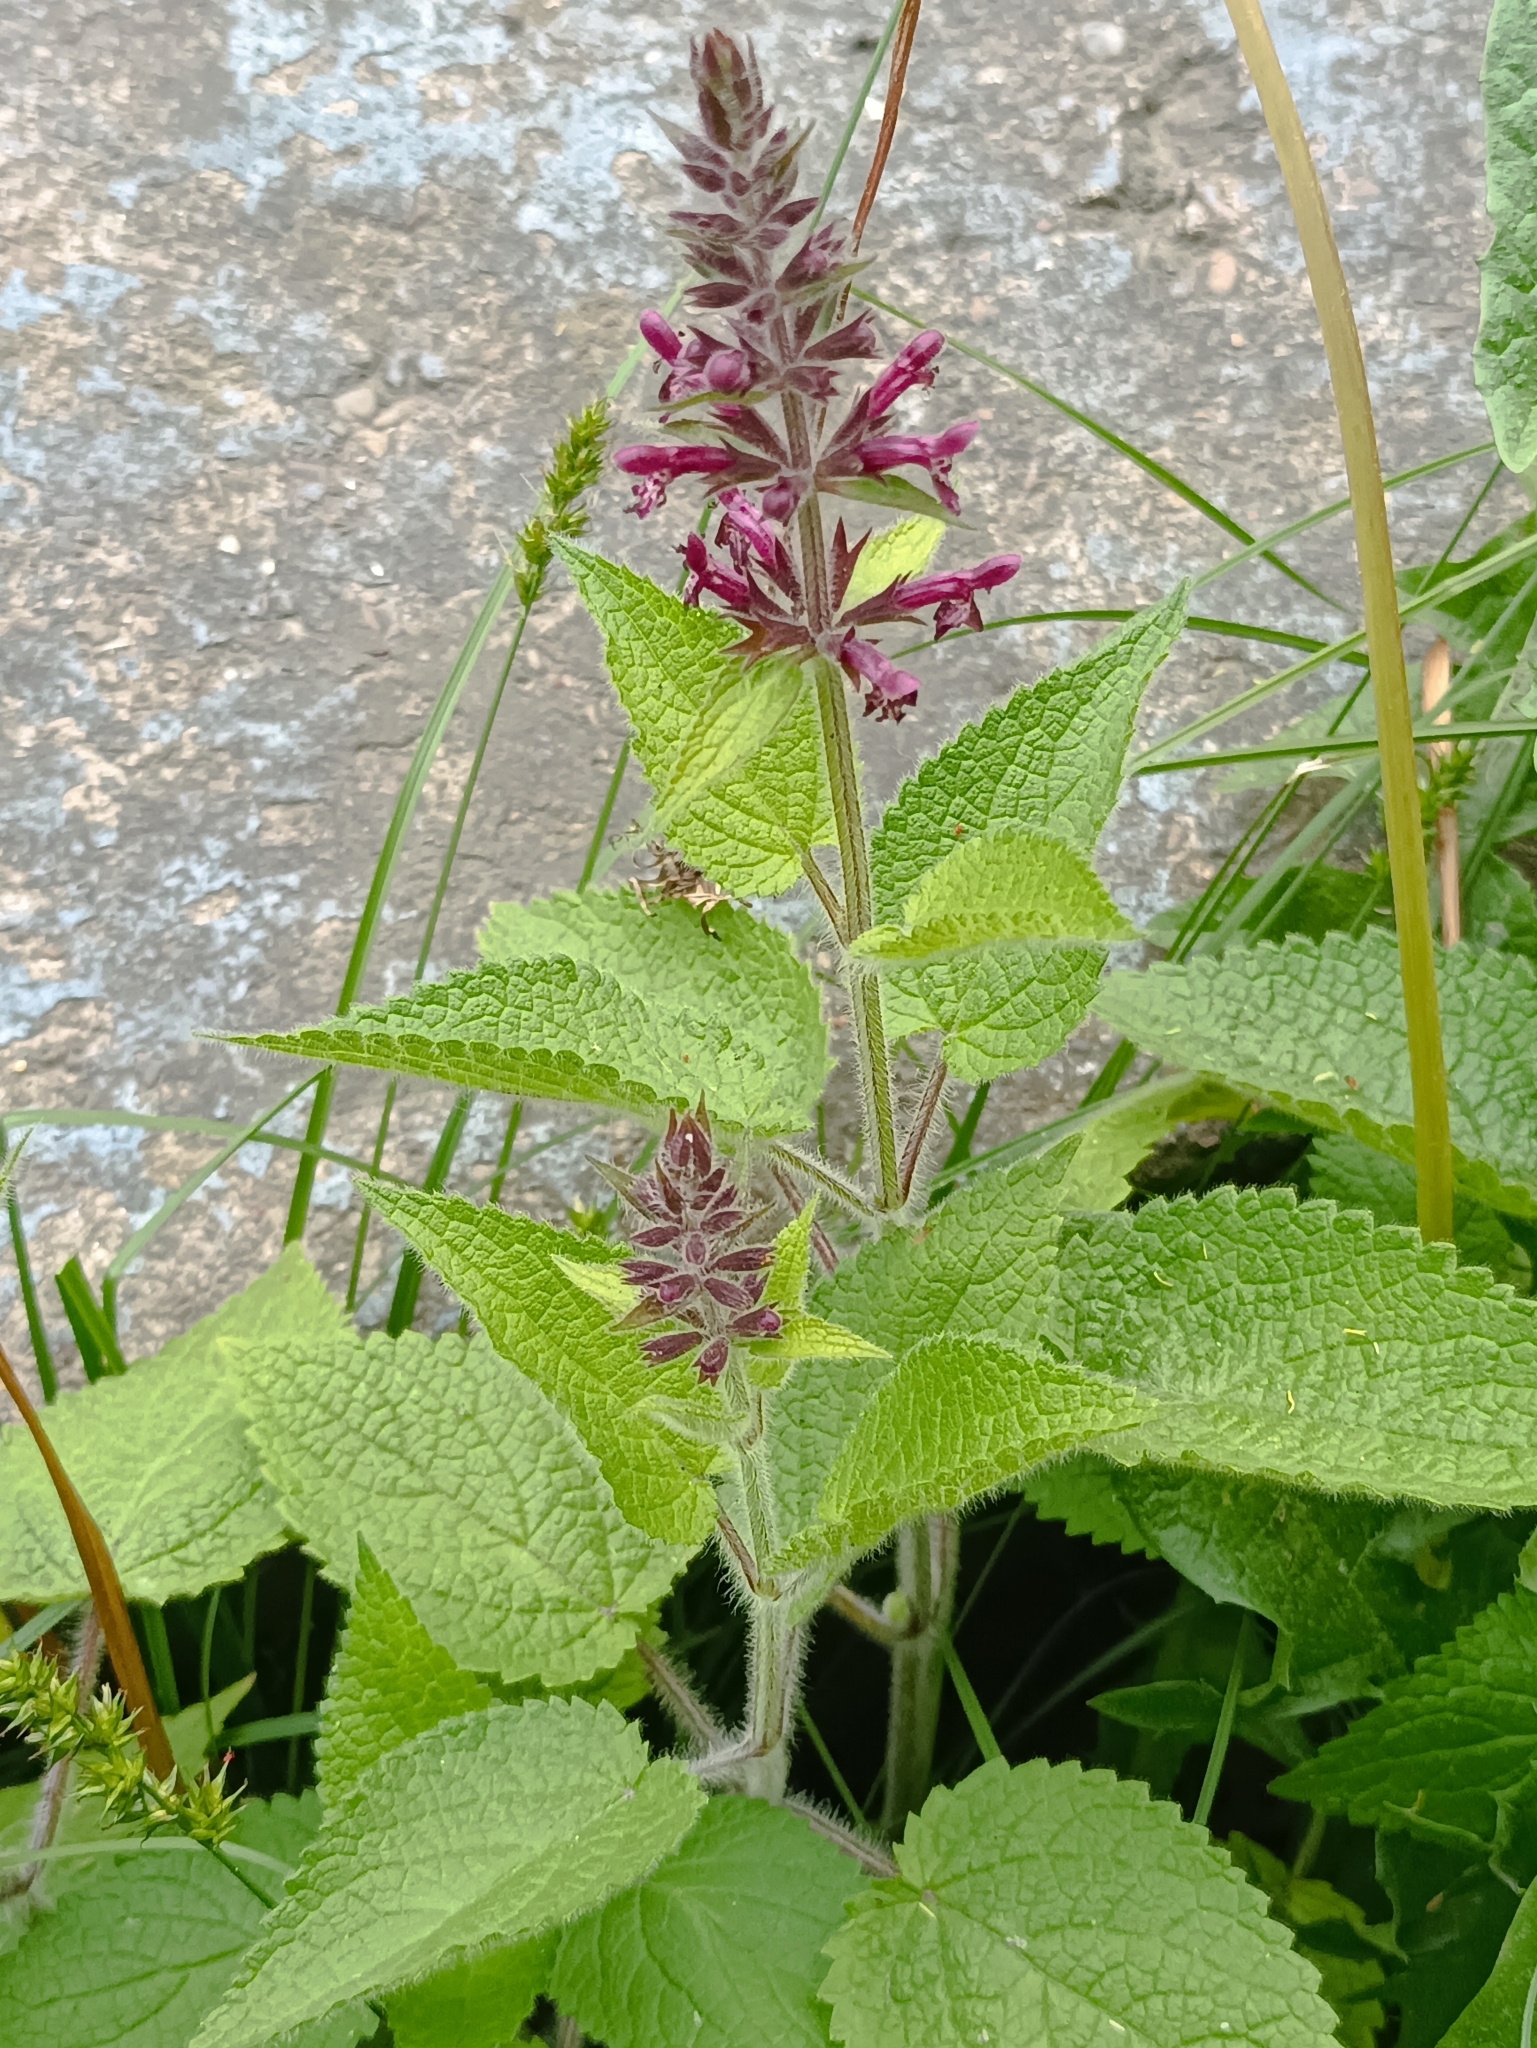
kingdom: Plantae
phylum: Tracheophyta
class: Magnoliopsida
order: Lamiales
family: Lamiaceae
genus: Stachys
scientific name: Stachys sylvatica
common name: Hedge woundwort
